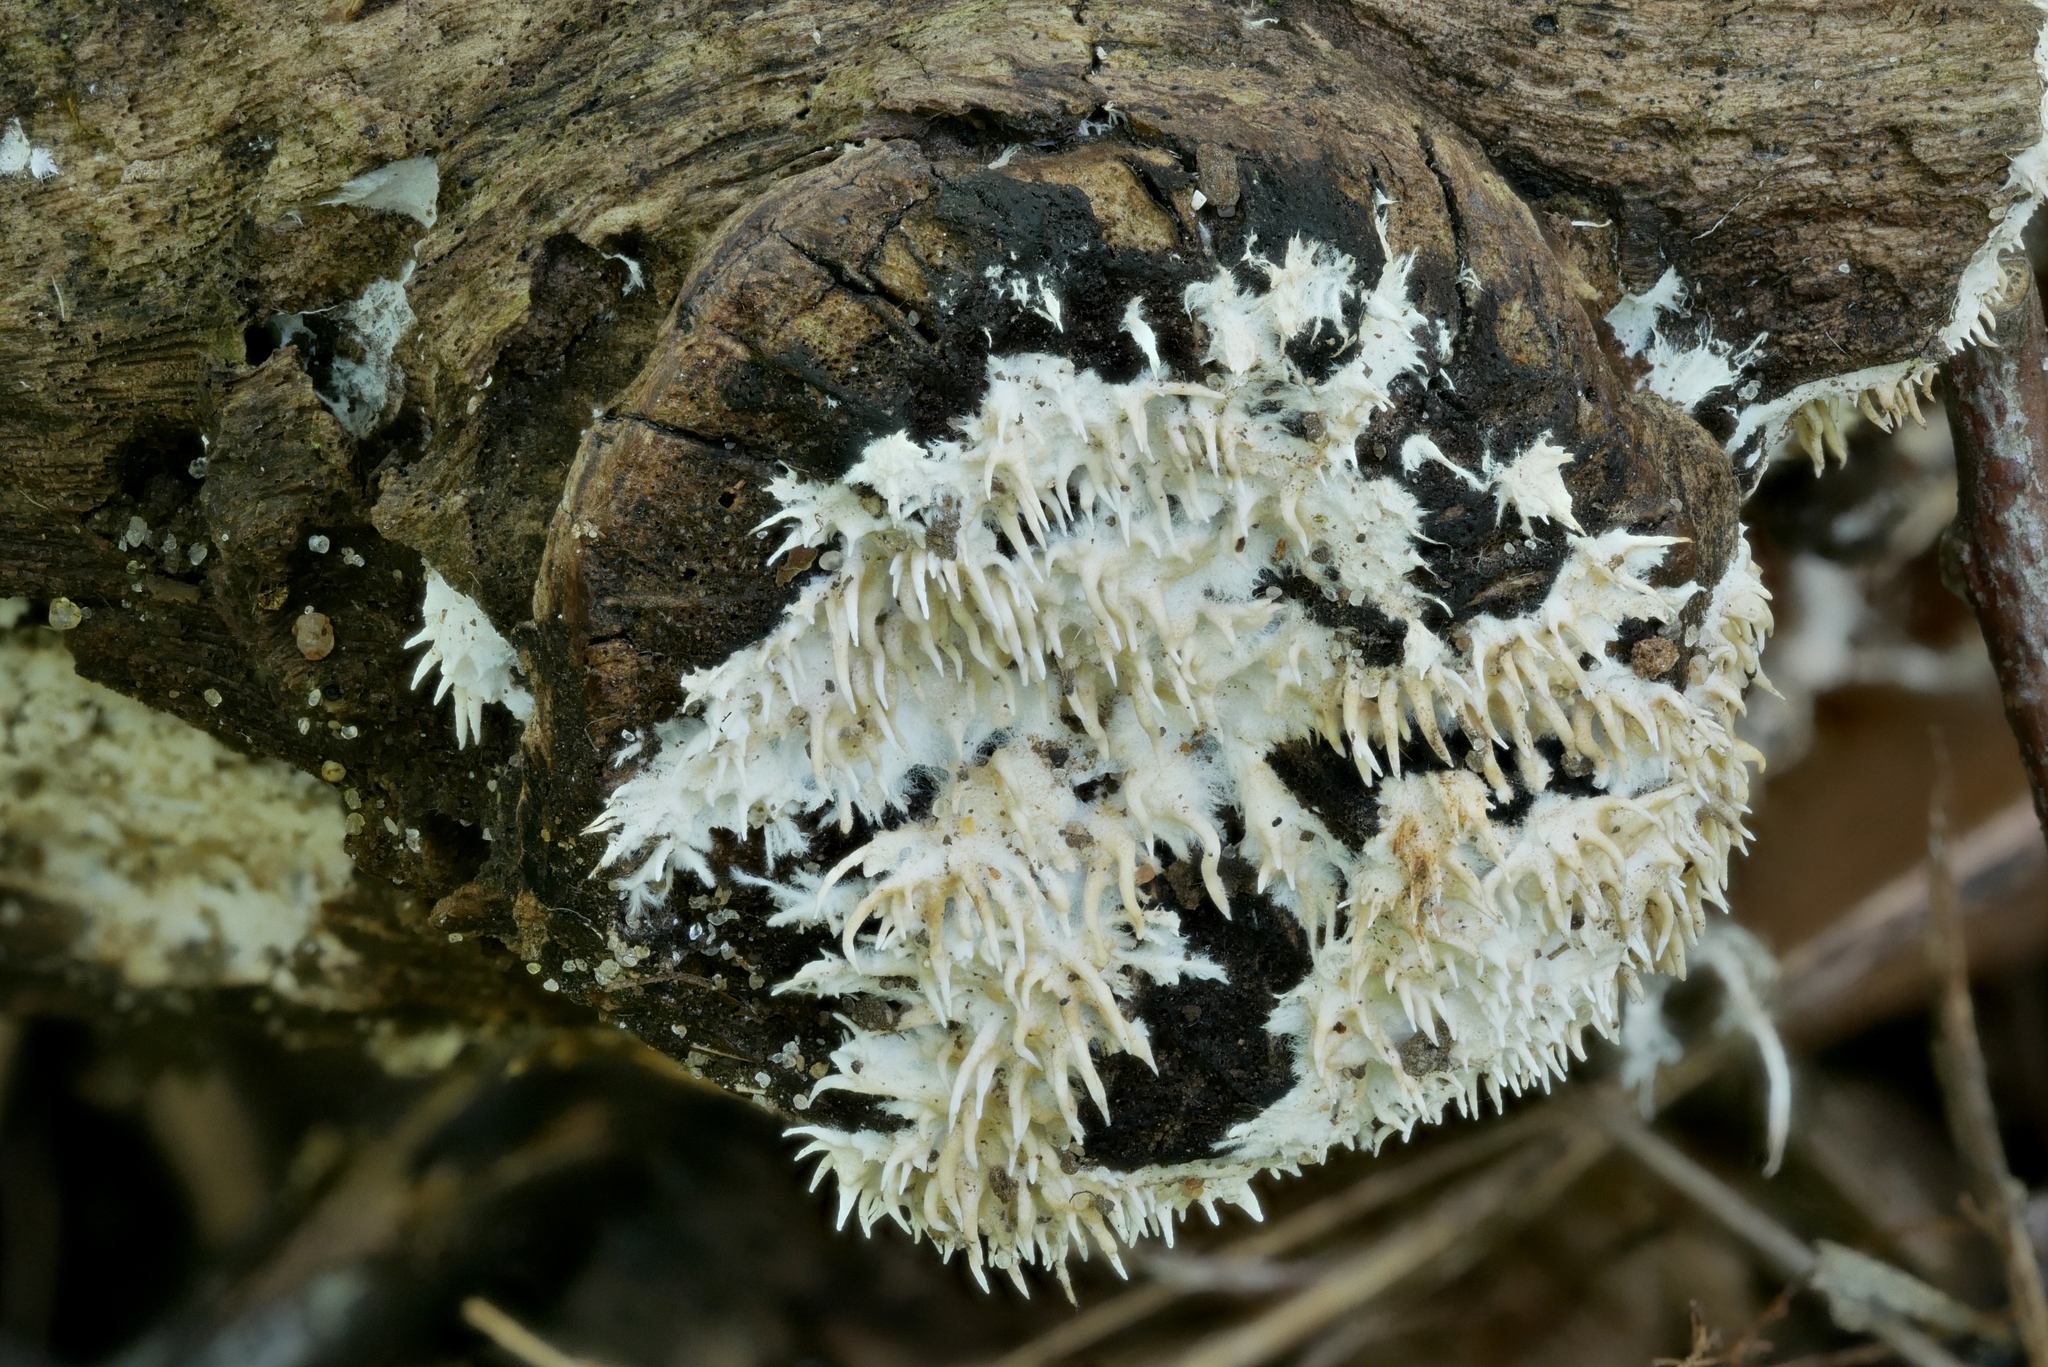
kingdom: Fungi
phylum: Basidiomycota
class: Agaricomycetes
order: Gomphales
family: Lentariaceae
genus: Hydnocristella
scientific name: Hydnocristella himantia
